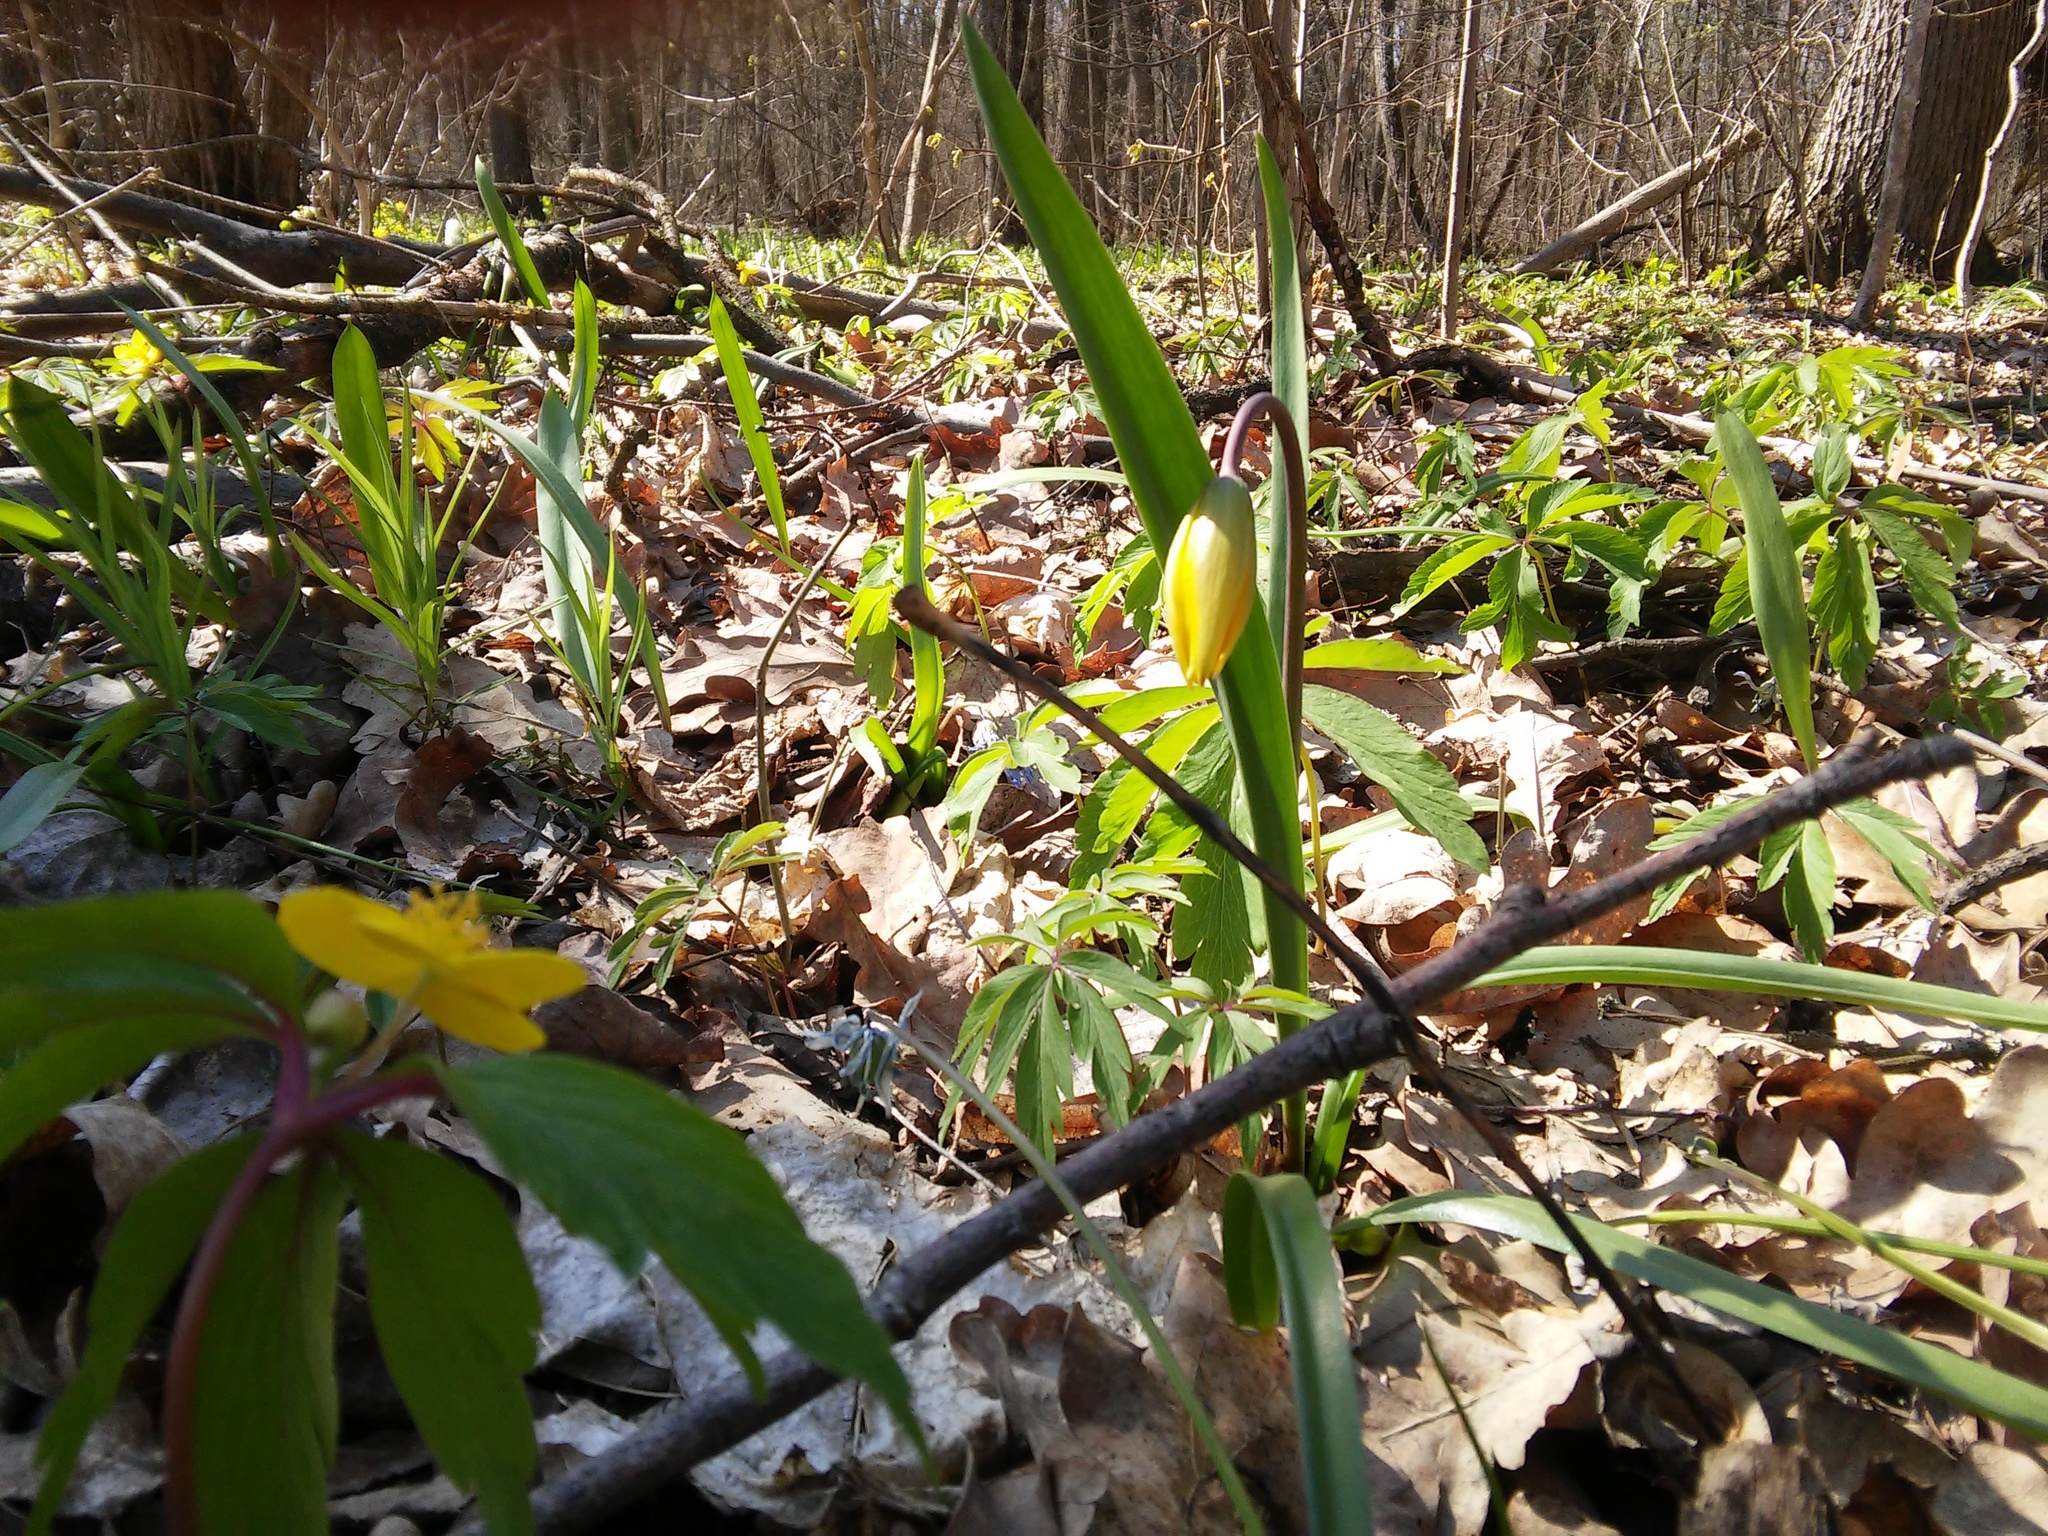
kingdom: Plantae
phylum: Tracheophyta
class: Liliopsida
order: Liliales
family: Liliaceae
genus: Tulipa
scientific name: Tulipa sylvestris
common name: Wild tulip
